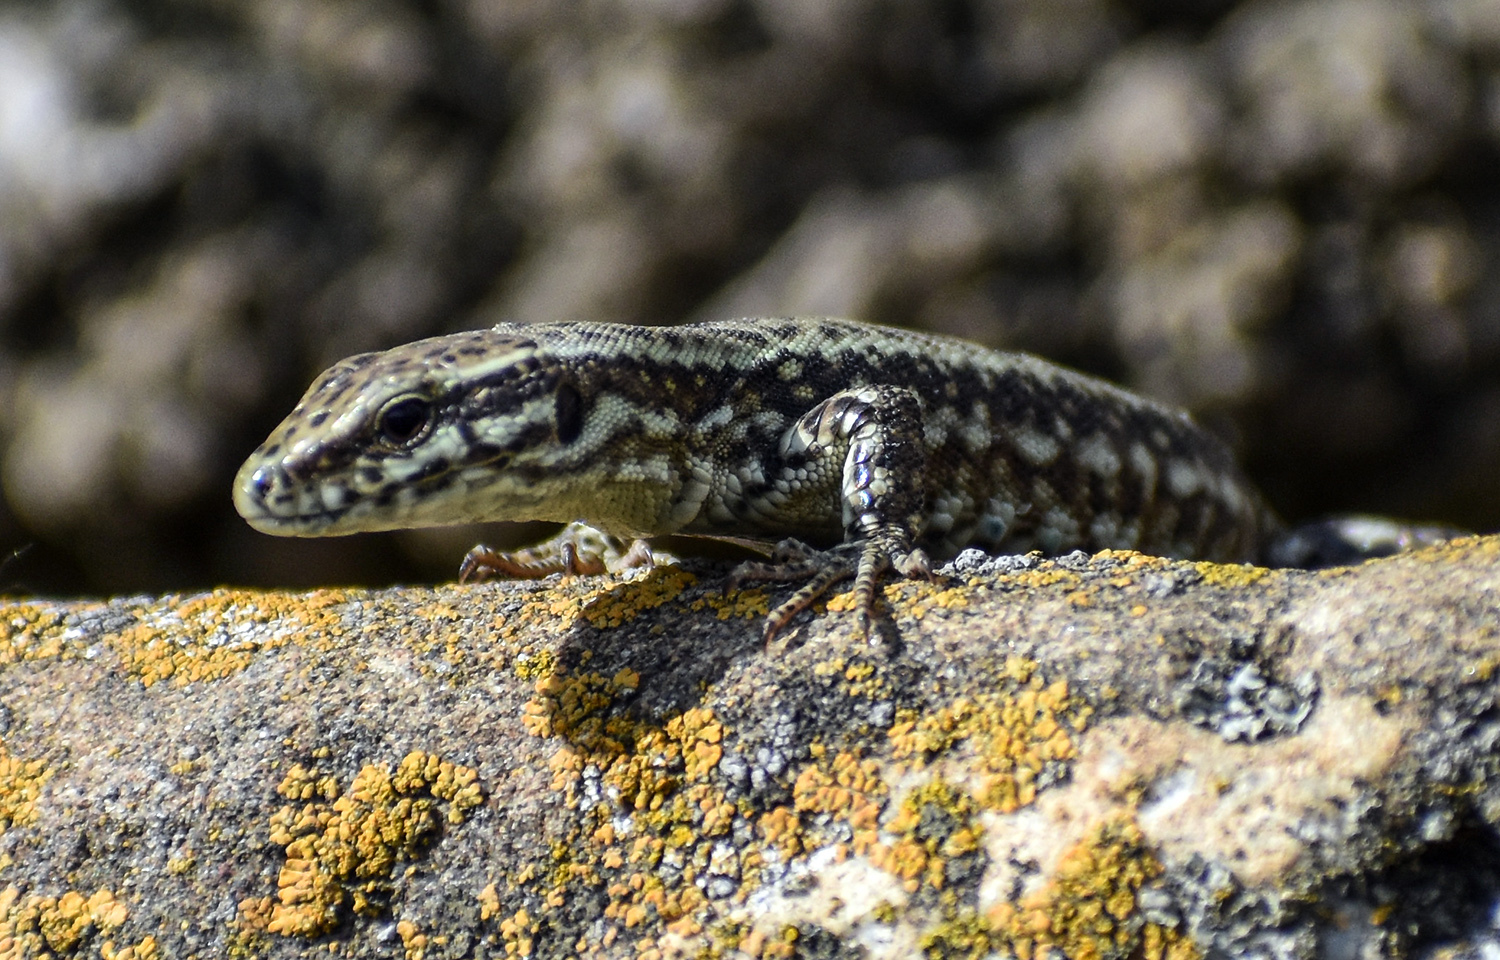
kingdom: Animalia
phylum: Chordata
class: Squamata
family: Lacertidae
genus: Podarcis
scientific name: Podarcis muralis
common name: Common wall lizard
